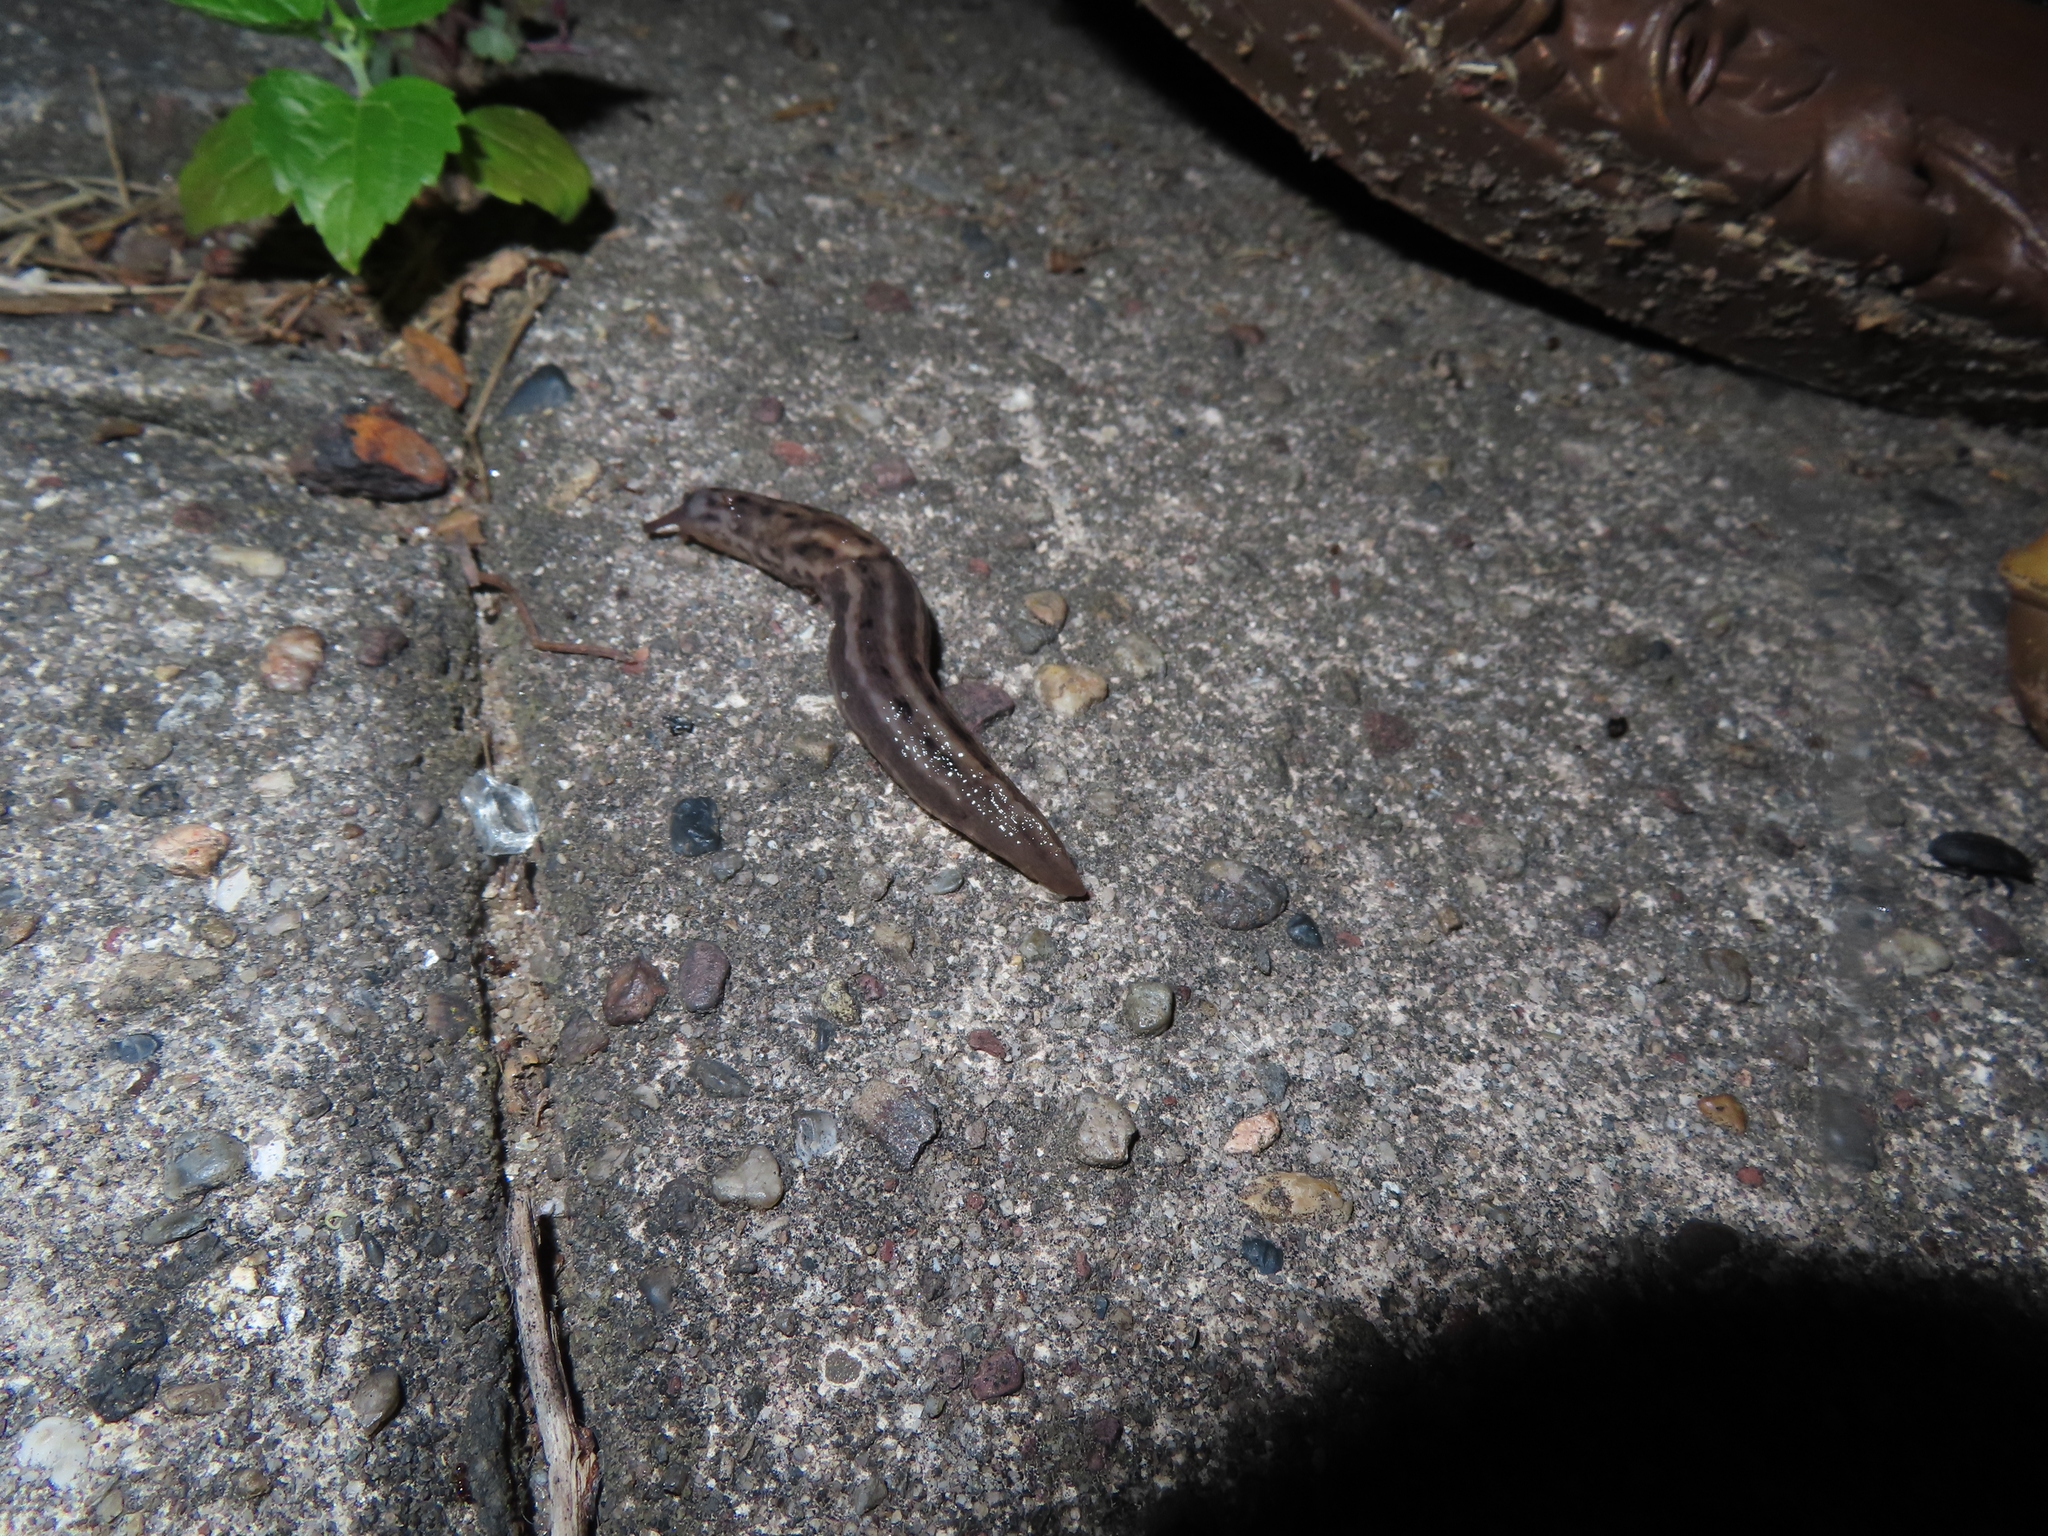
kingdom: Animalia
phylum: Mollusca
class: Gastropoda
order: Stylommatophora
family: Limacidae
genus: Limax
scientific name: Limax maximus
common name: Great grey slug
